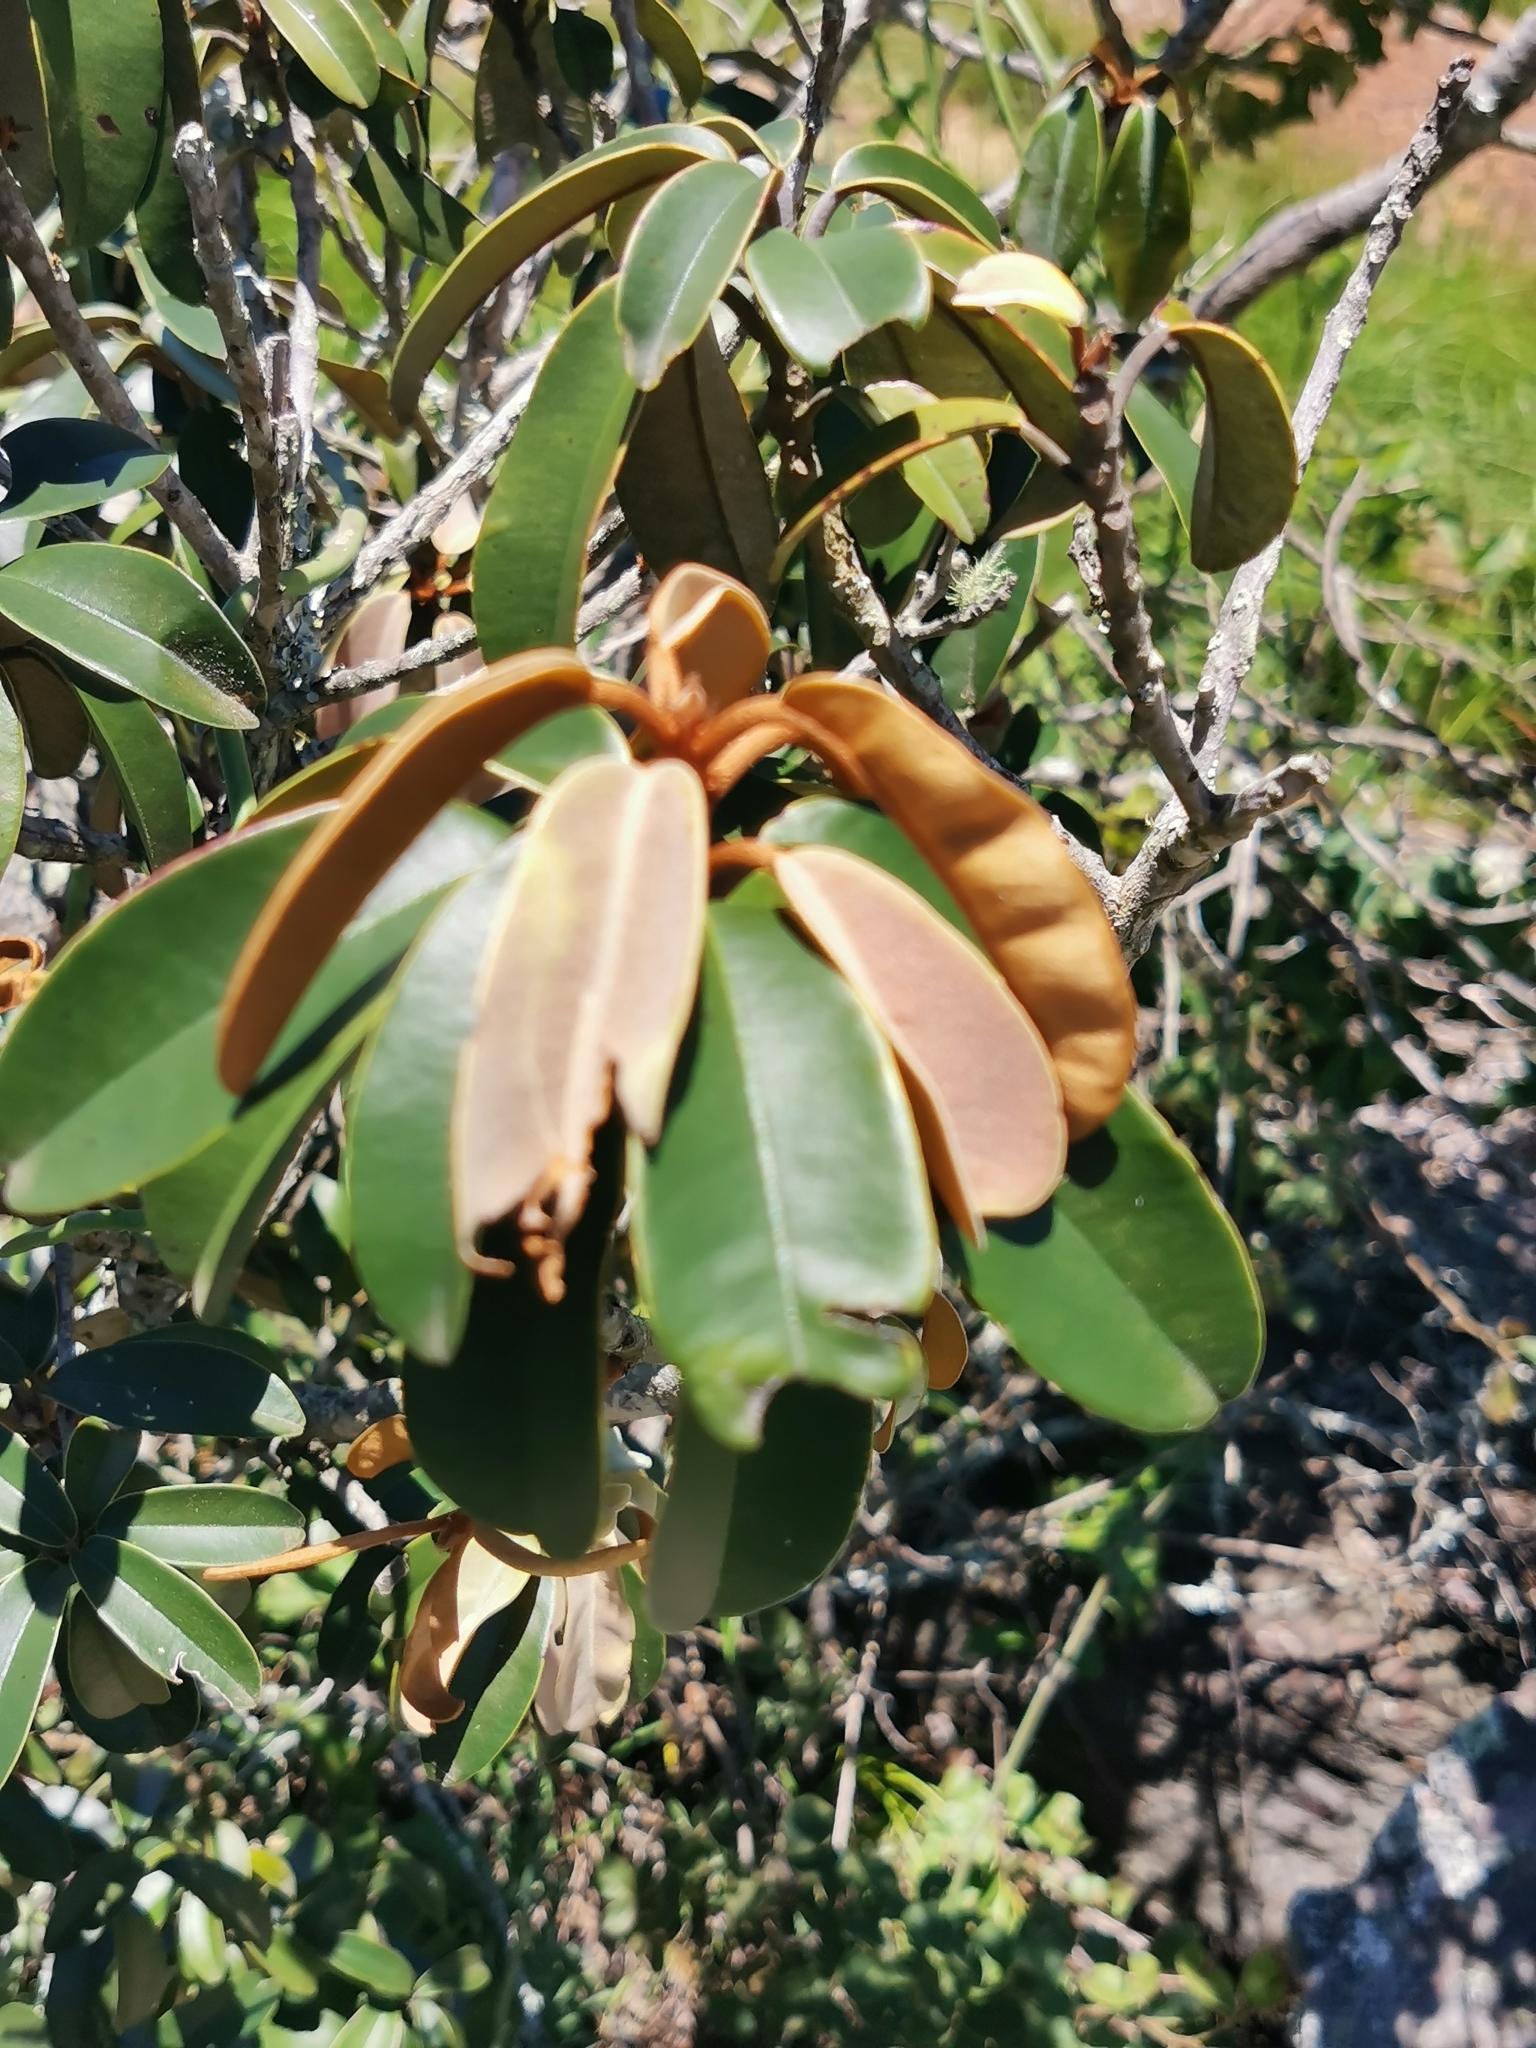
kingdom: Plantae
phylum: Tracheophyta
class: Magnoliopsida
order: Ericales
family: Sapotaceae
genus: Englerophytum
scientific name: Englerophytum magalismontanum
